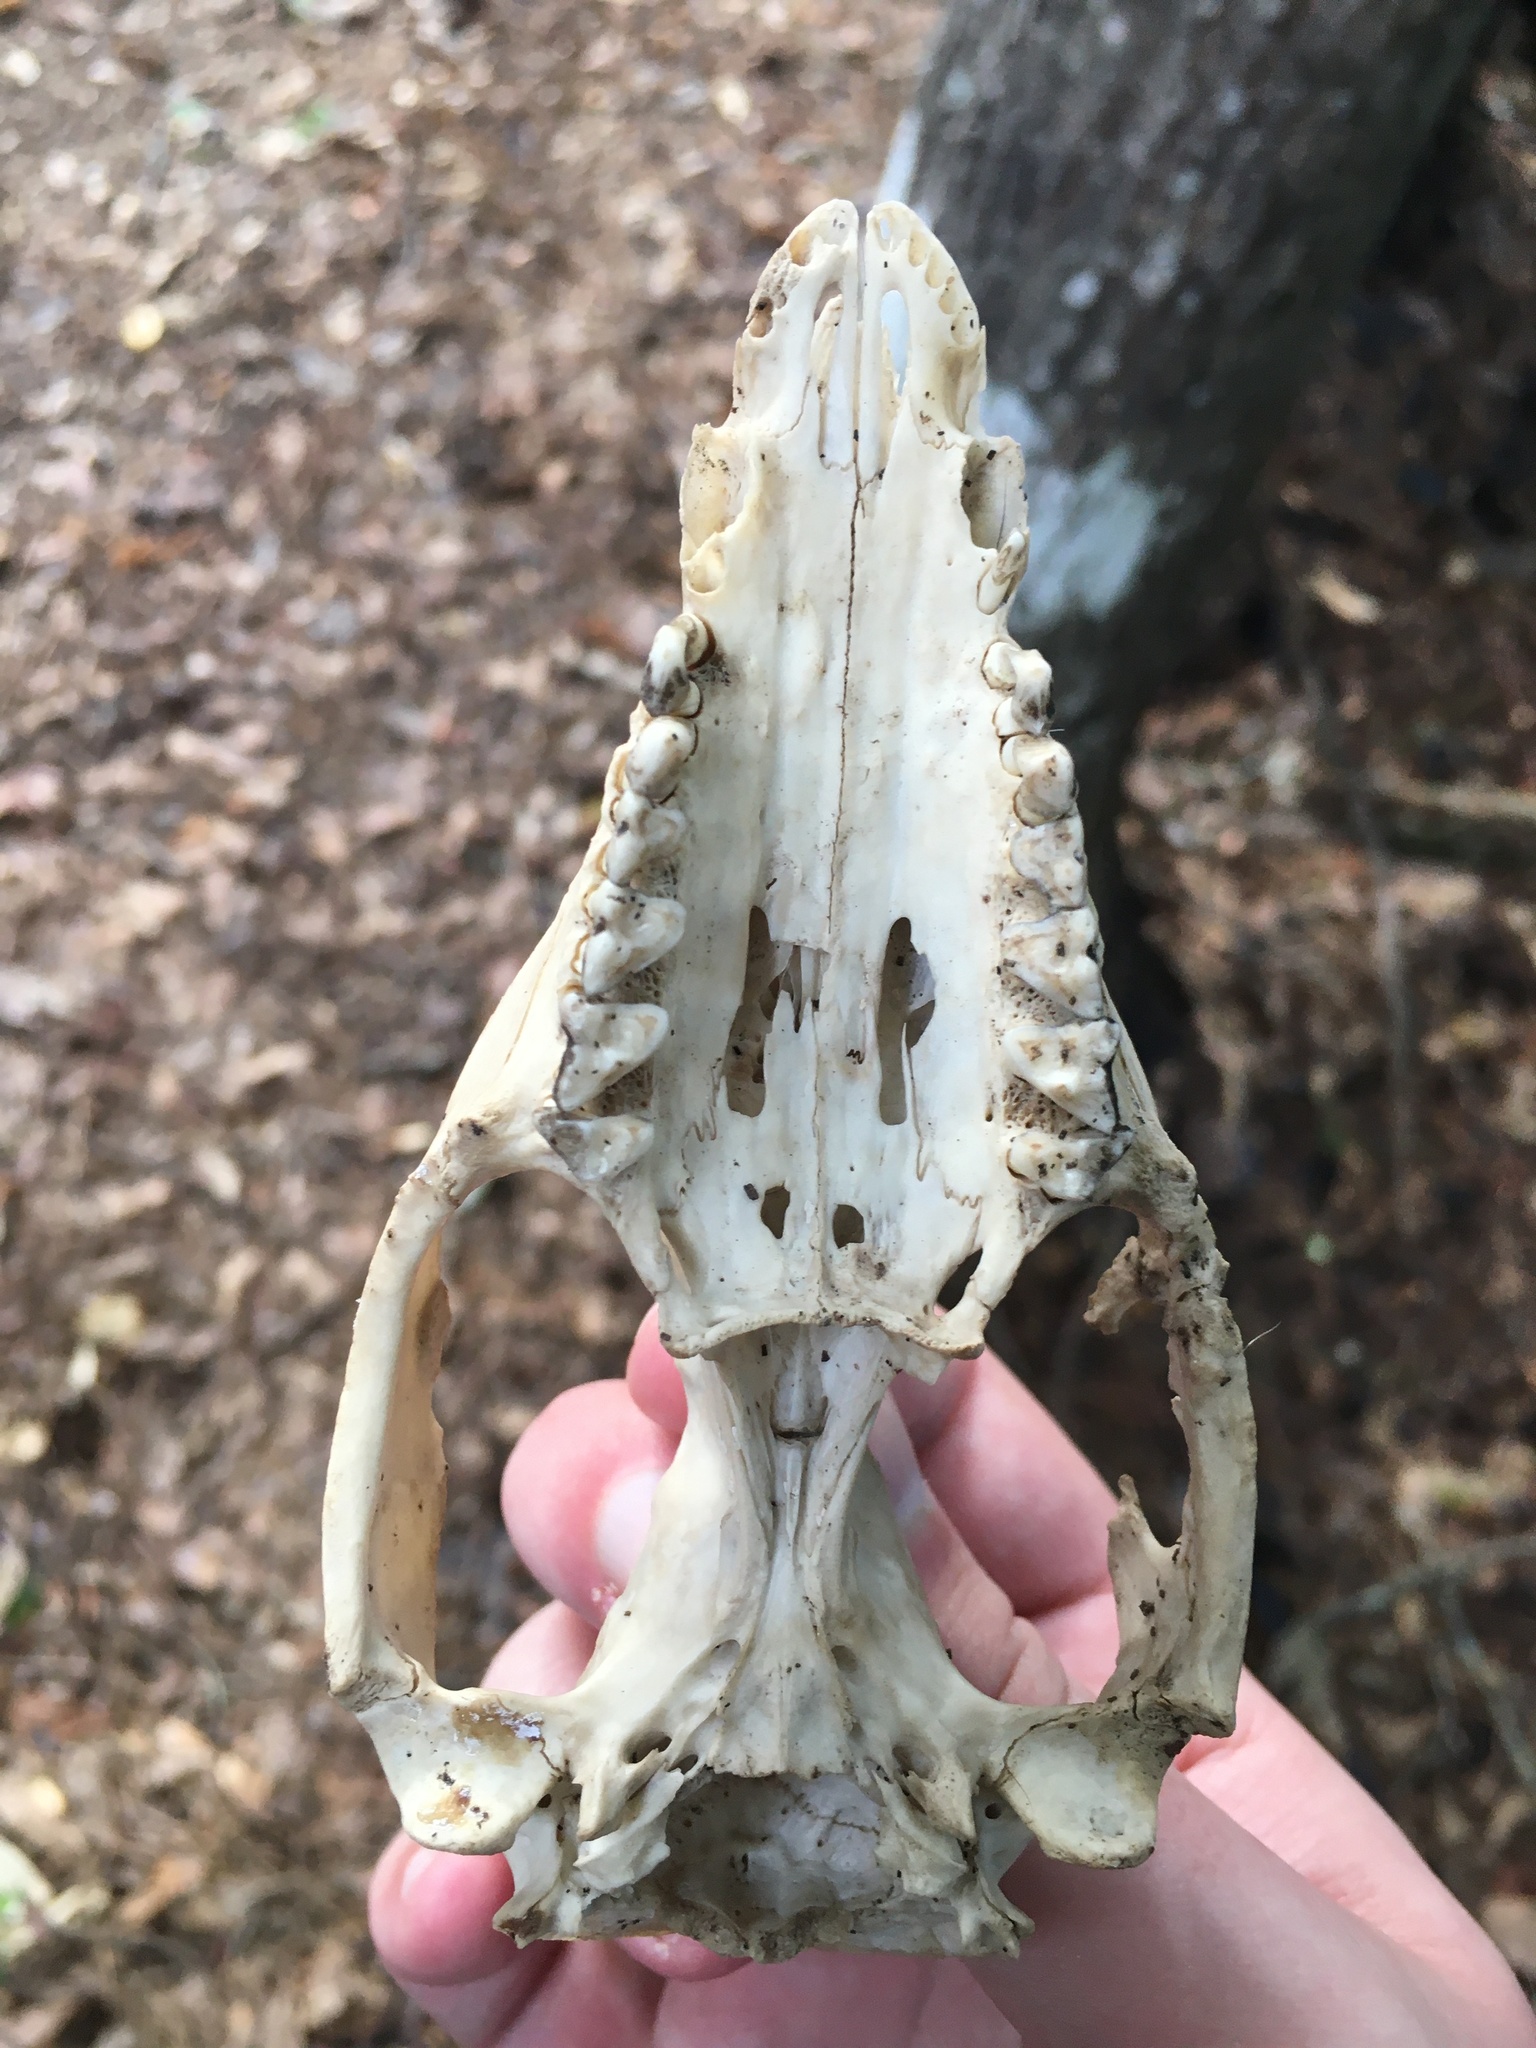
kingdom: Animalia
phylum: Chordata
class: Mammalia
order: Didelphimorphia
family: Didelphidae
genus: Didelphis
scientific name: Didelphis virginiana
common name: Virginia opossum
